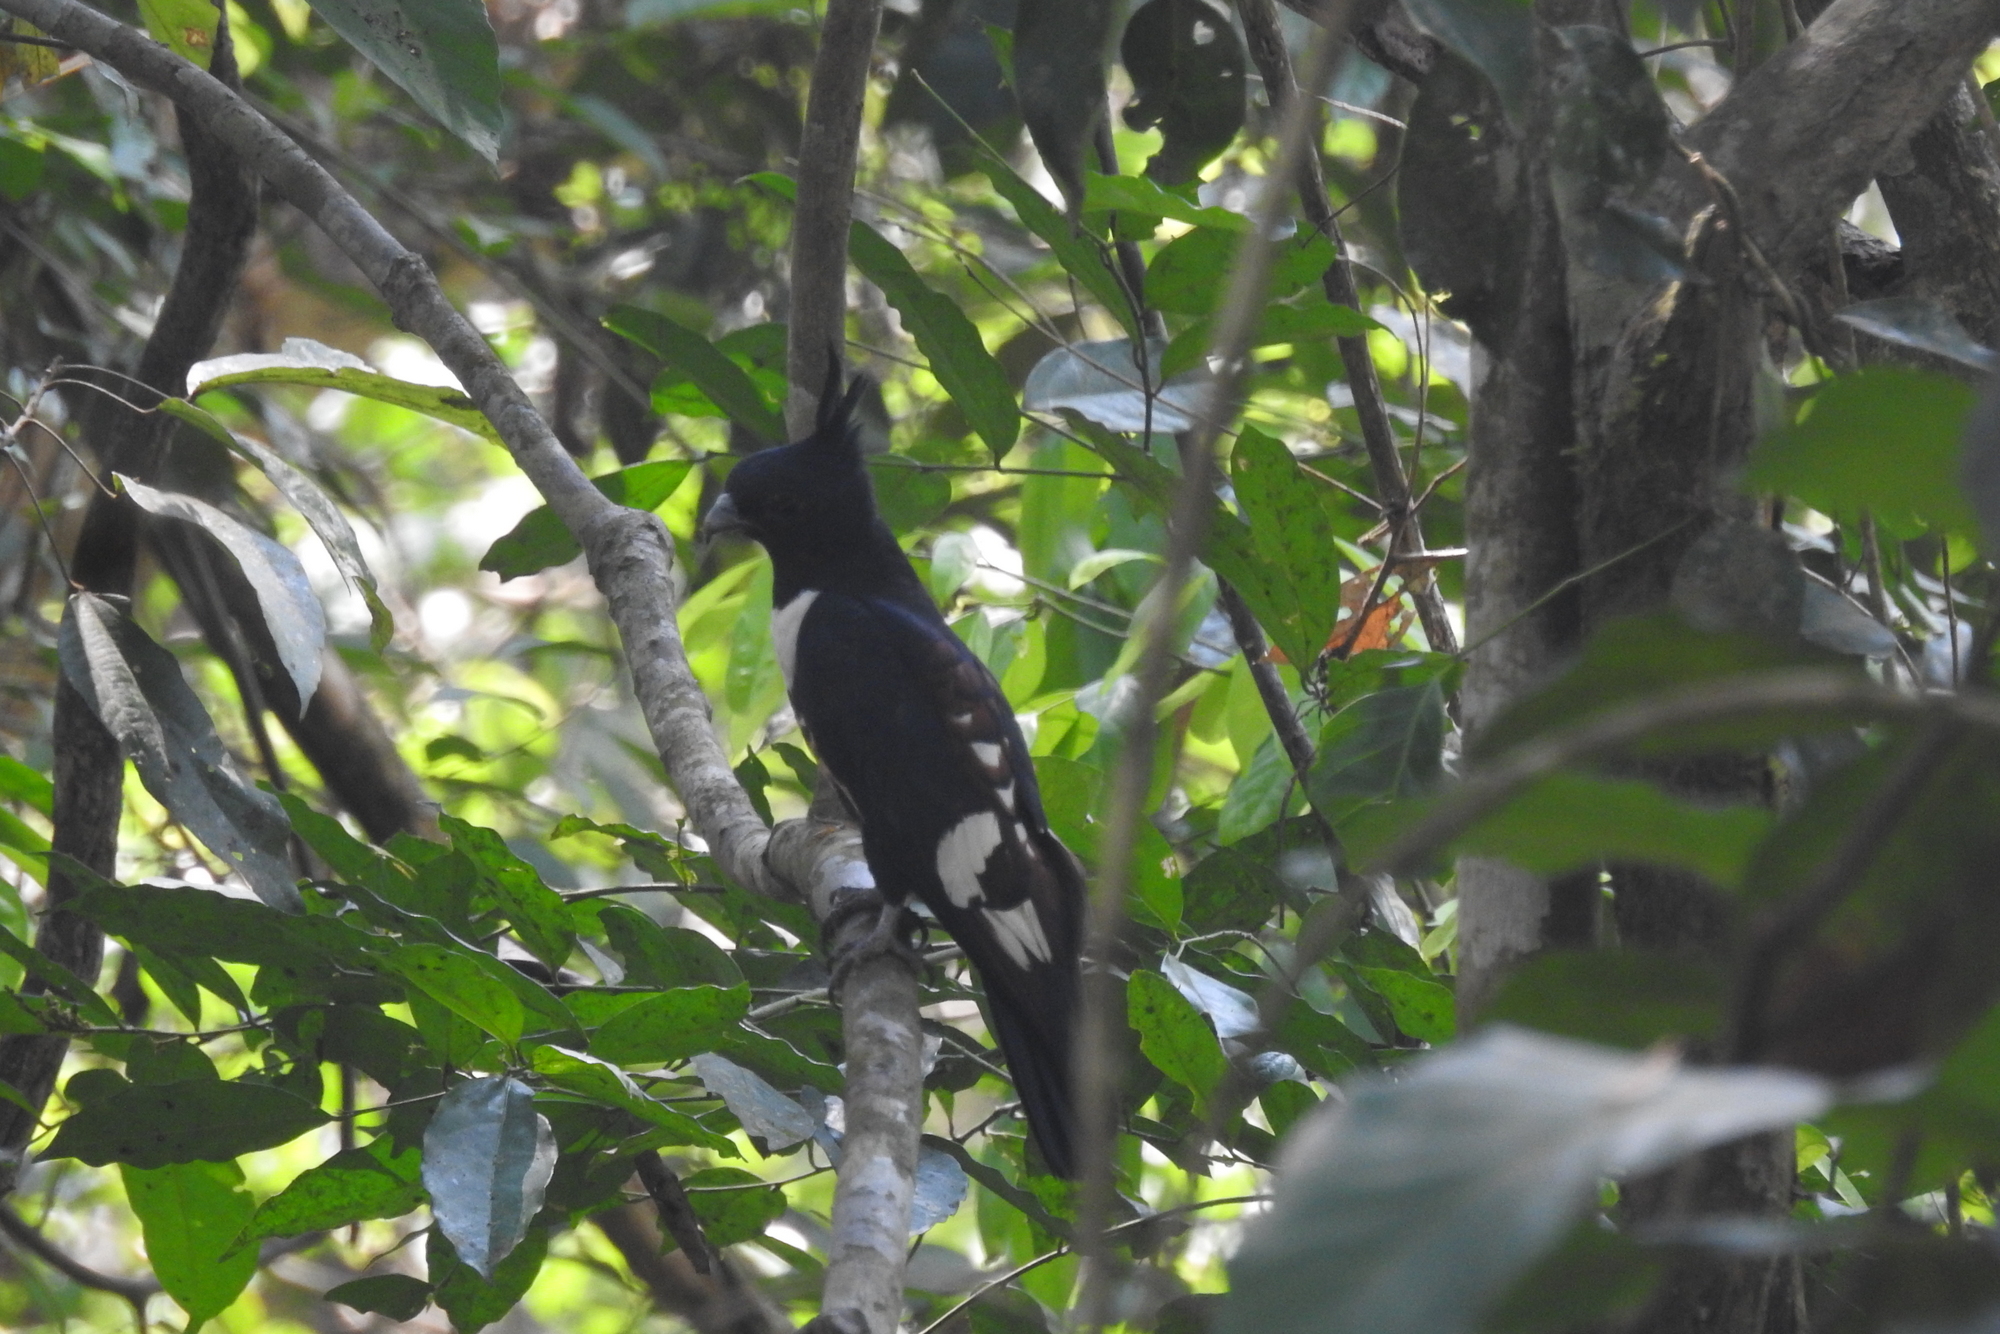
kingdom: Animalia
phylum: Chordata
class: Aves
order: Accipitriformes
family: Accipitridae
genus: Aviceda
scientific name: Aviceda leuphotes
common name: Black baza
